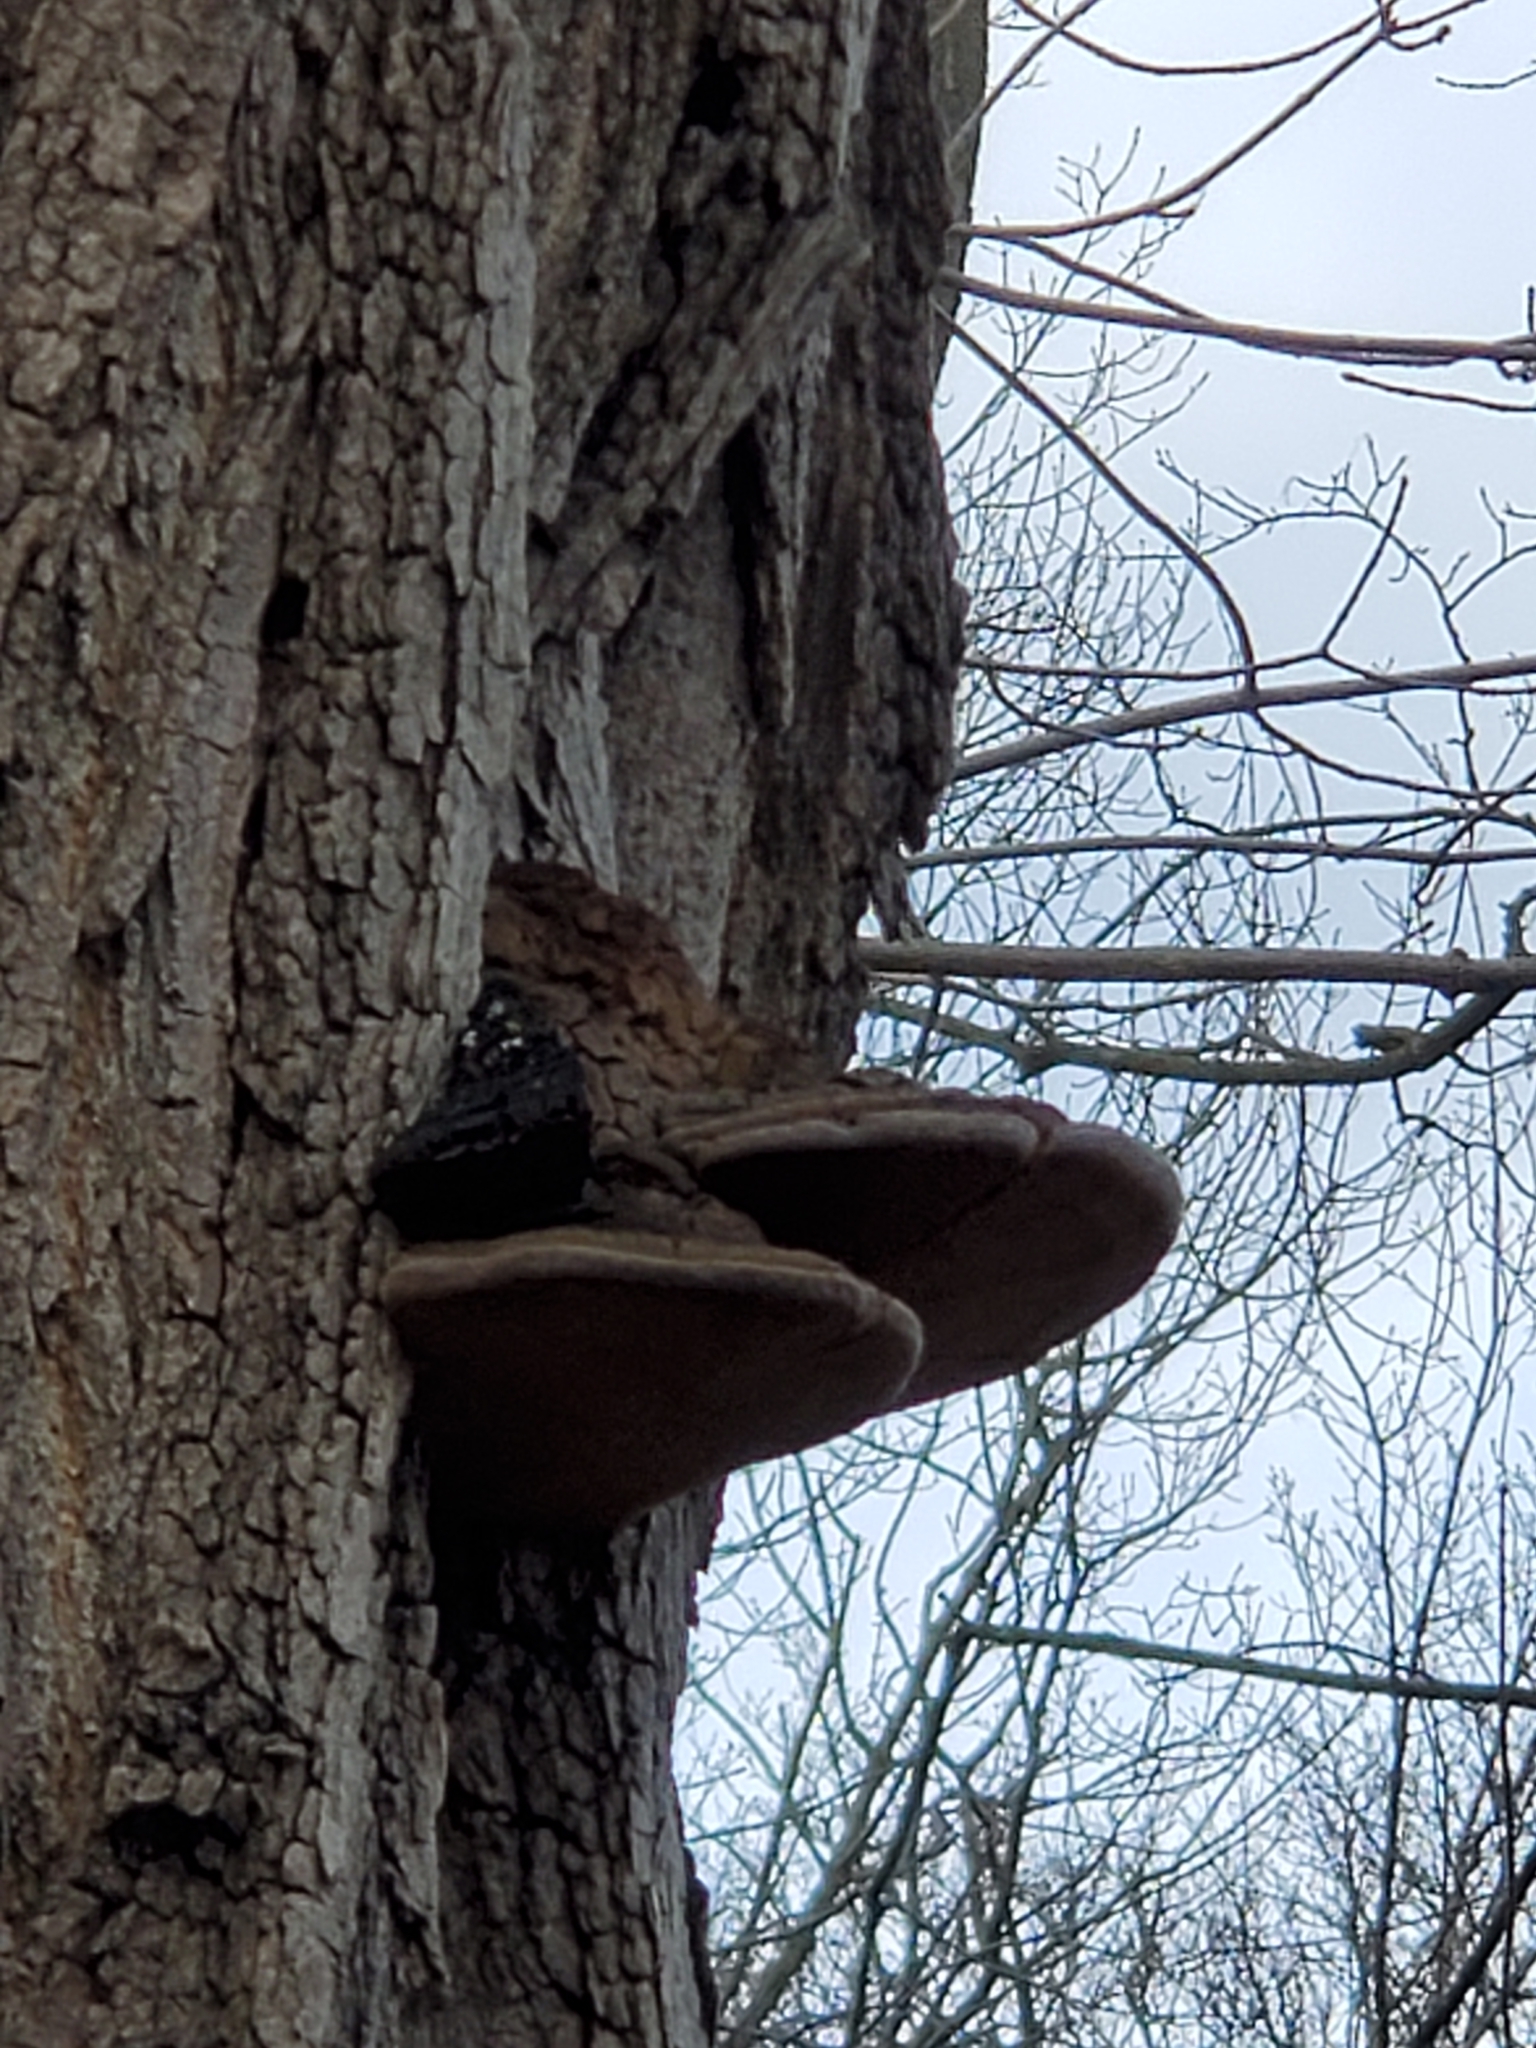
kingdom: Fungi
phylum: Basidiomycota
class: Agaricomycetes
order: Hymenochaetales
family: Hymenochaetaceae
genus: Phellinus
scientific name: Phellinus robiniae
